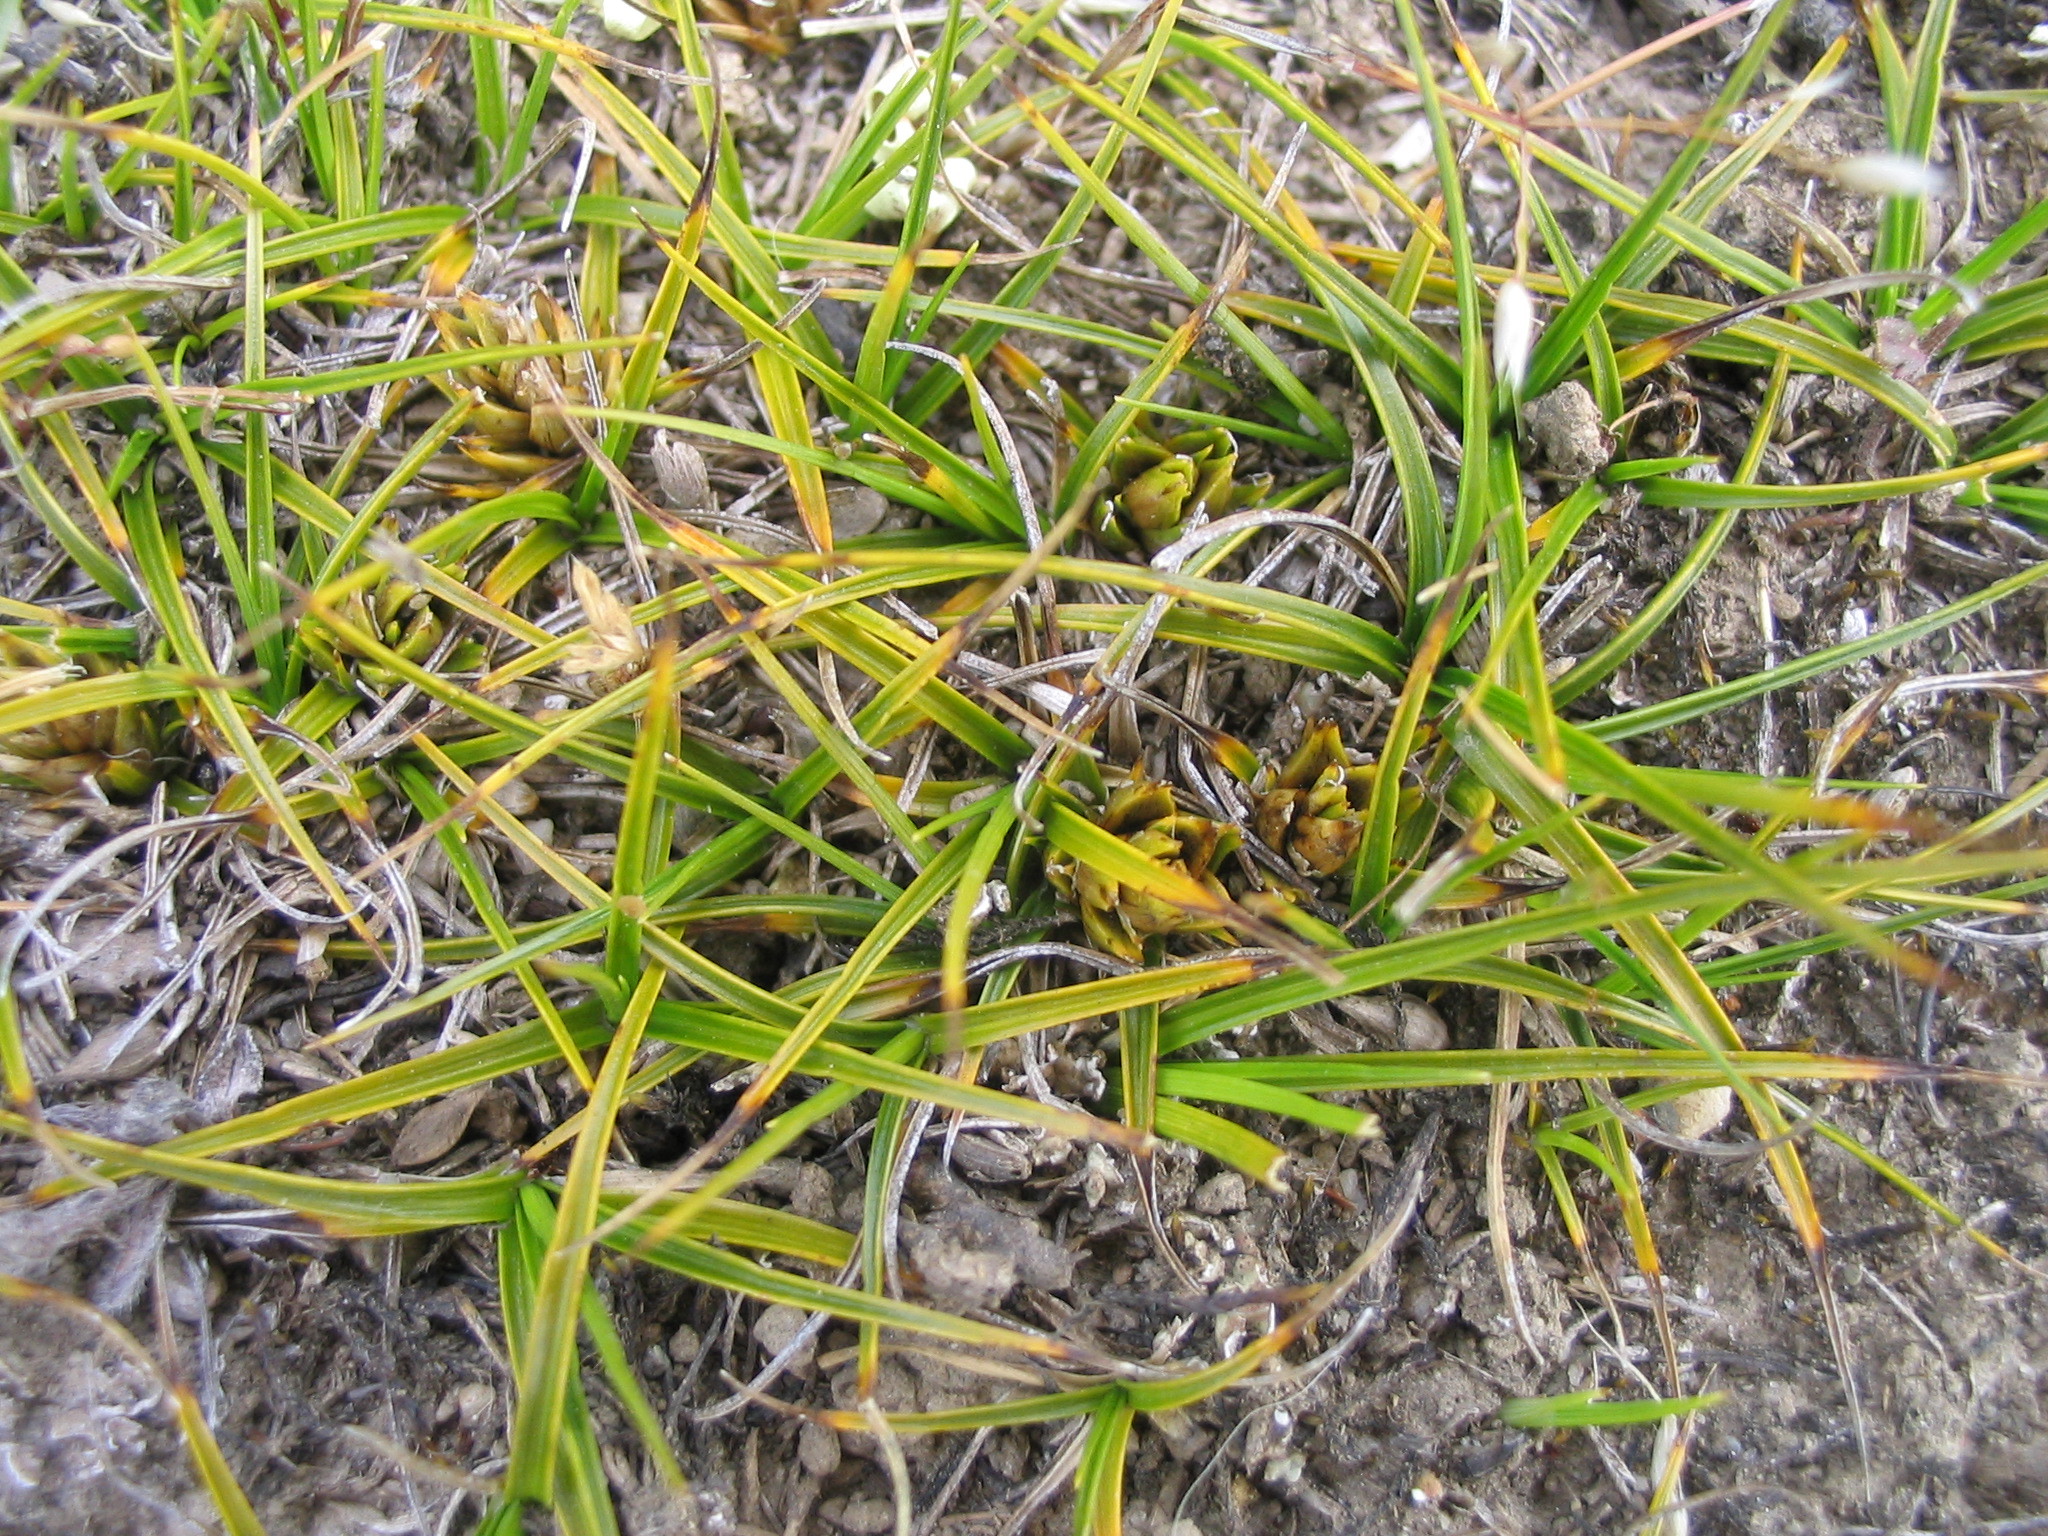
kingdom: Plantae
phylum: Tracheophyta
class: Liliopsida
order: Poales
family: Cyperaceae
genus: Carex
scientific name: Carex resectans
